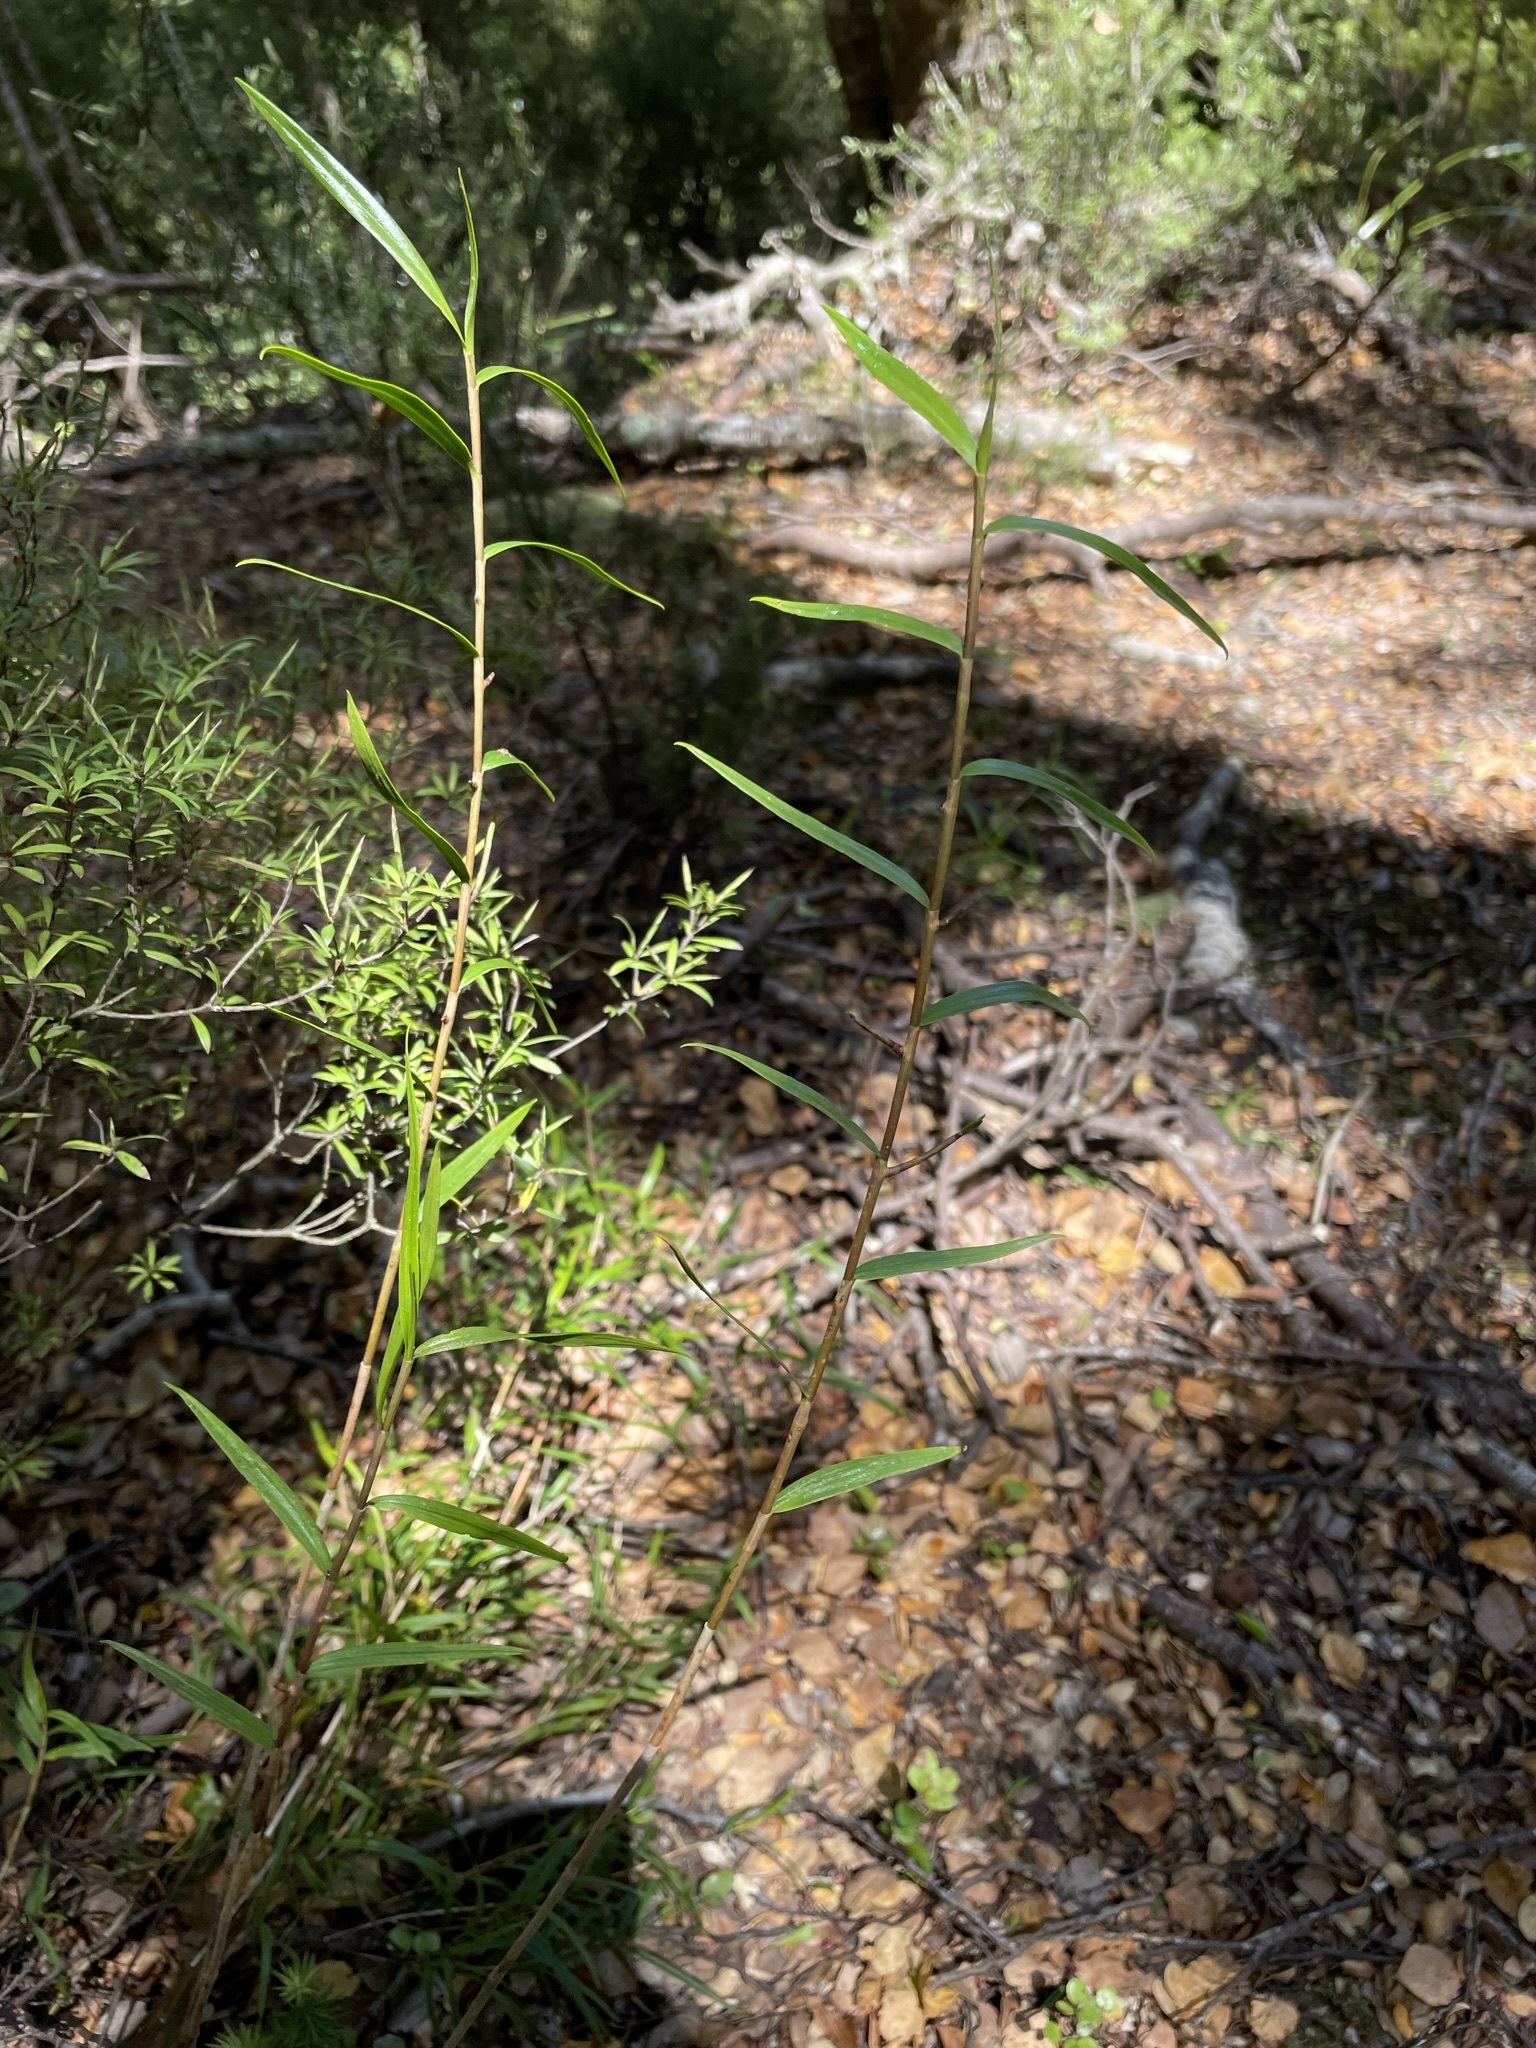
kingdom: Plantae
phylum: Tracheophyta
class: Liliopsida
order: Asparagales
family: Orchidaceae
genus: Dendrobium
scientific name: Dendrobium cunninghamii
